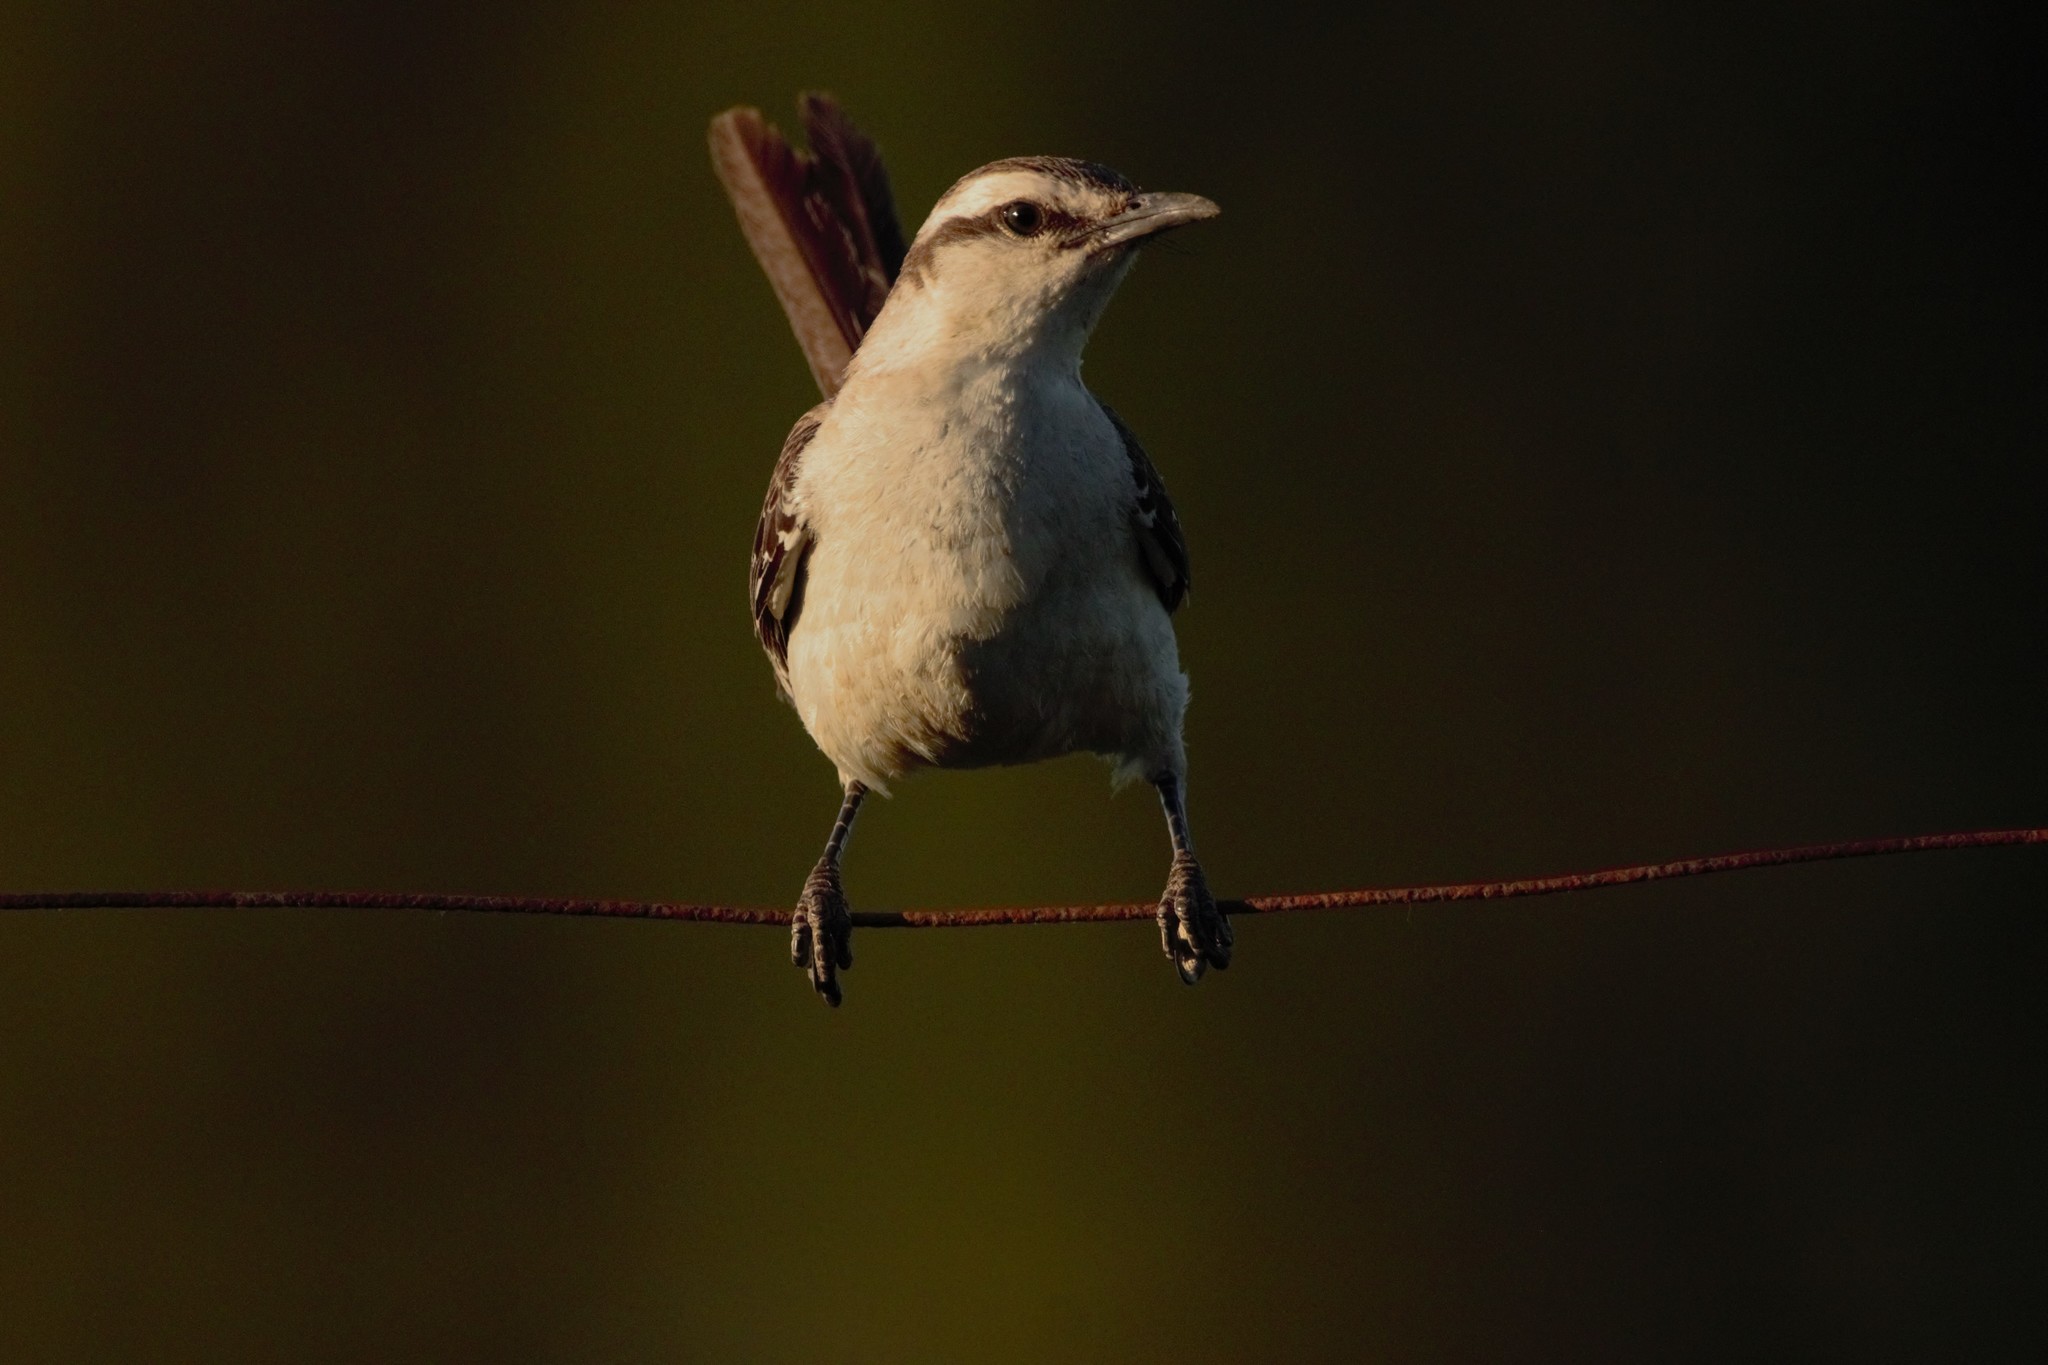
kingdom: Animalia
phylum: Chordata
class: Aves
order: Passeriformes
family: Mimidae
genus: Mimus
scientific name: Mimus saturninus
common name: Chalk-browed mockingbird
